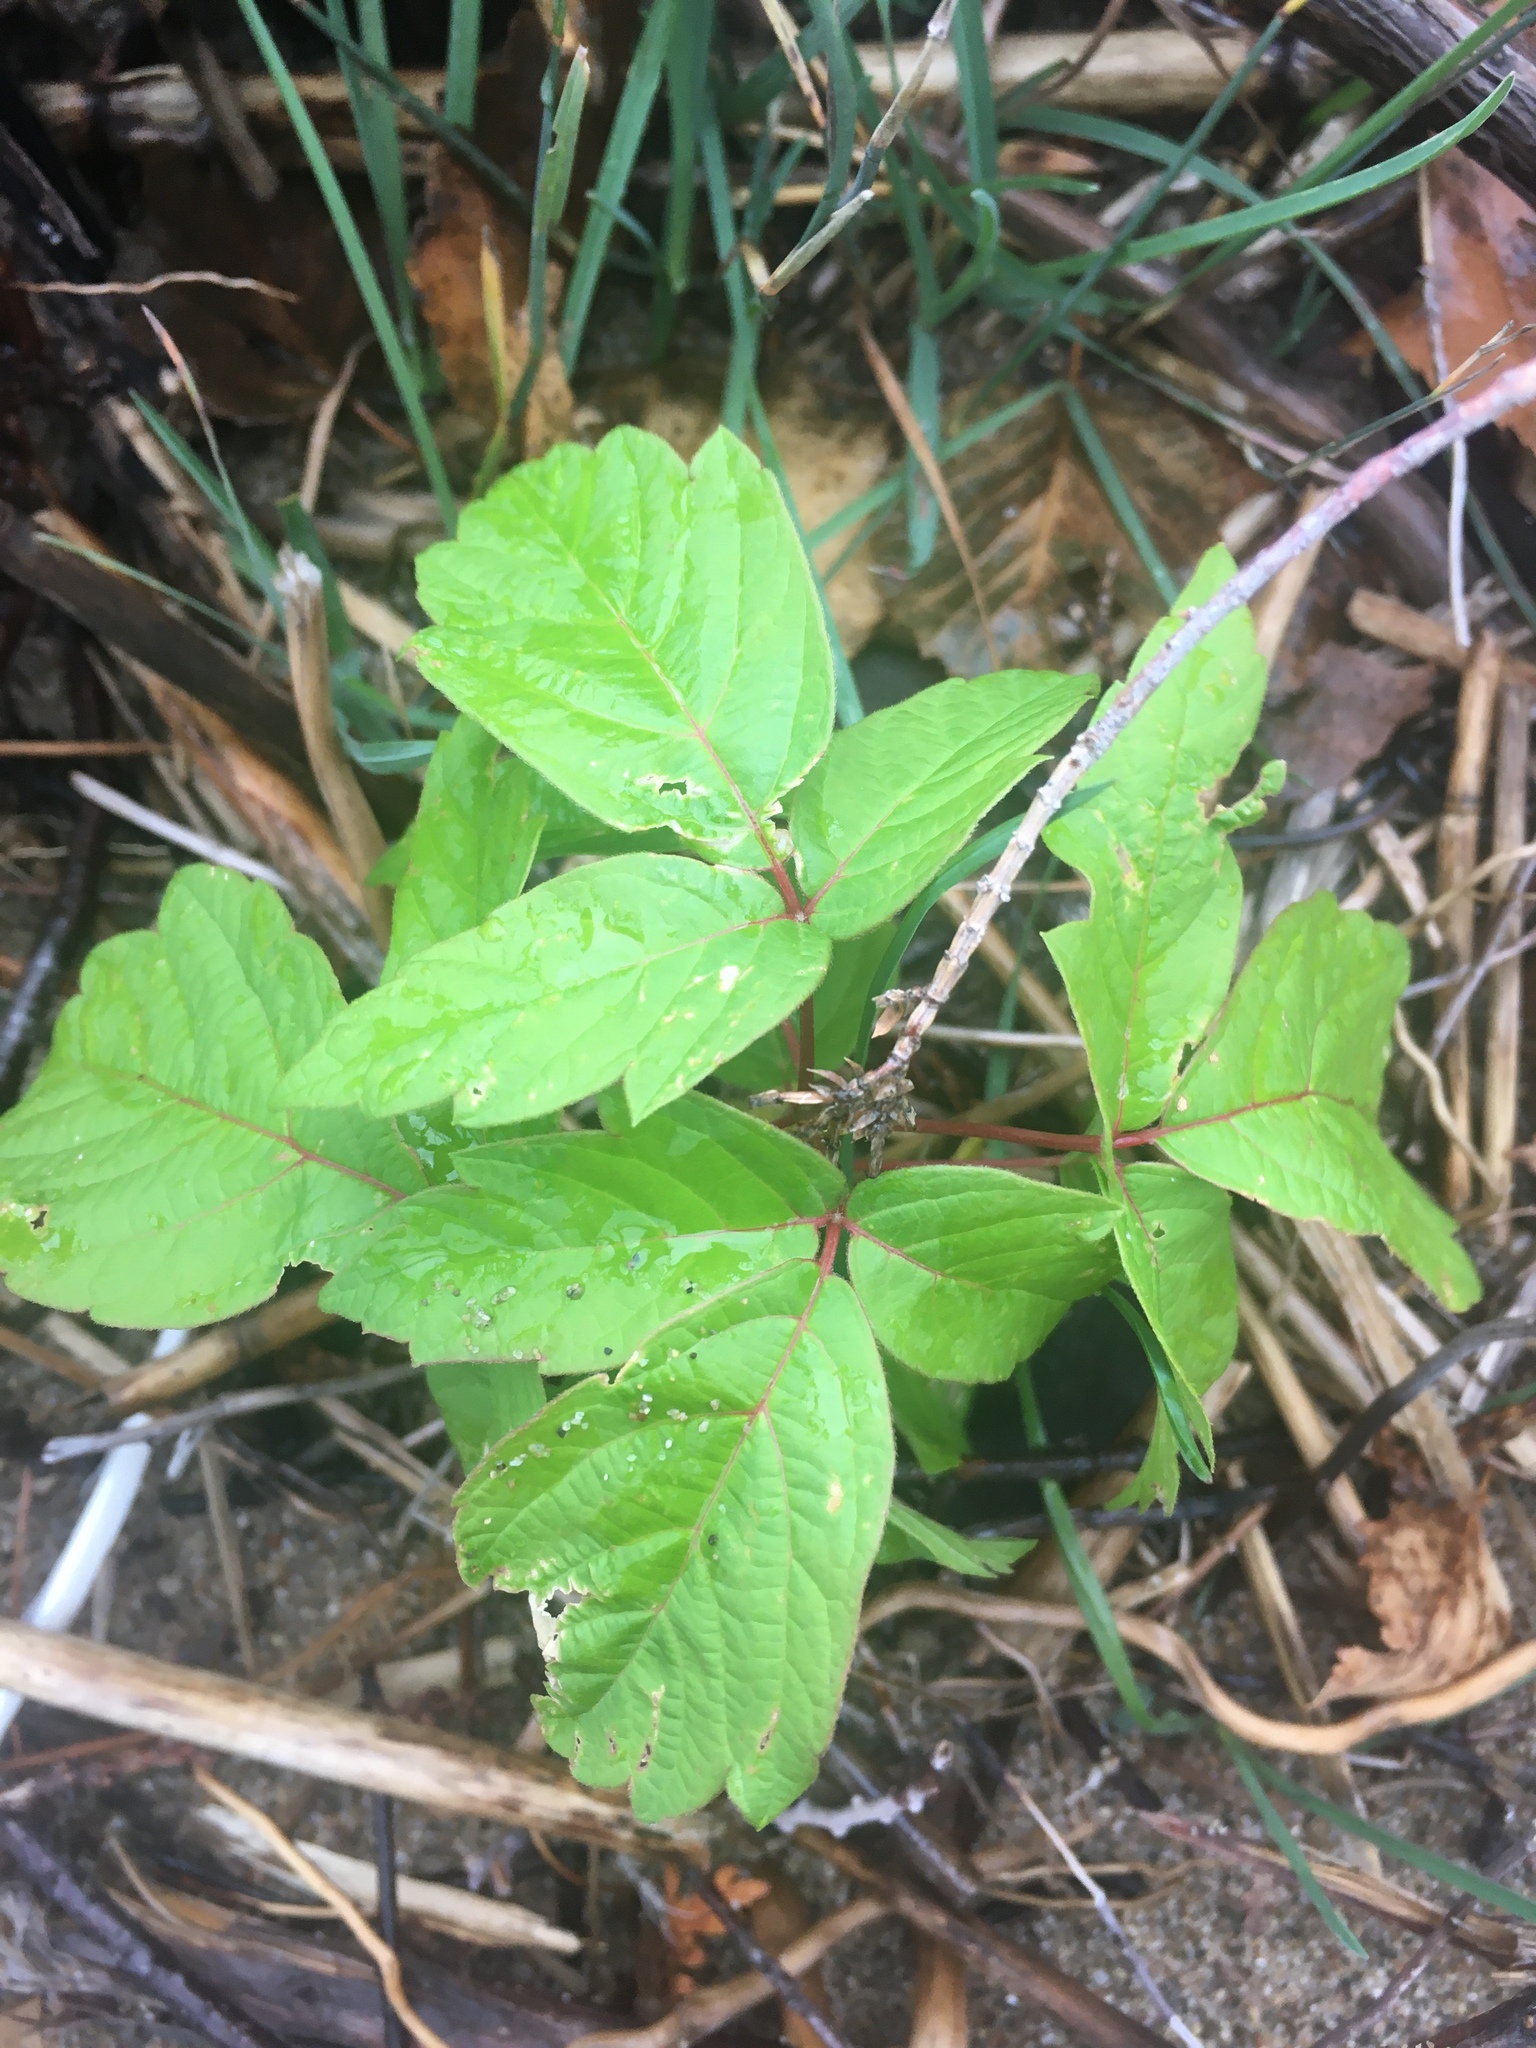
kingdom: Plantae
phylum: Tracheophyta
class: Magnoliopsida
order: Sapindales
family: Sapindaceae
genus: Acer
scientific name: Acer negundo
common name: Ashleaf maple
